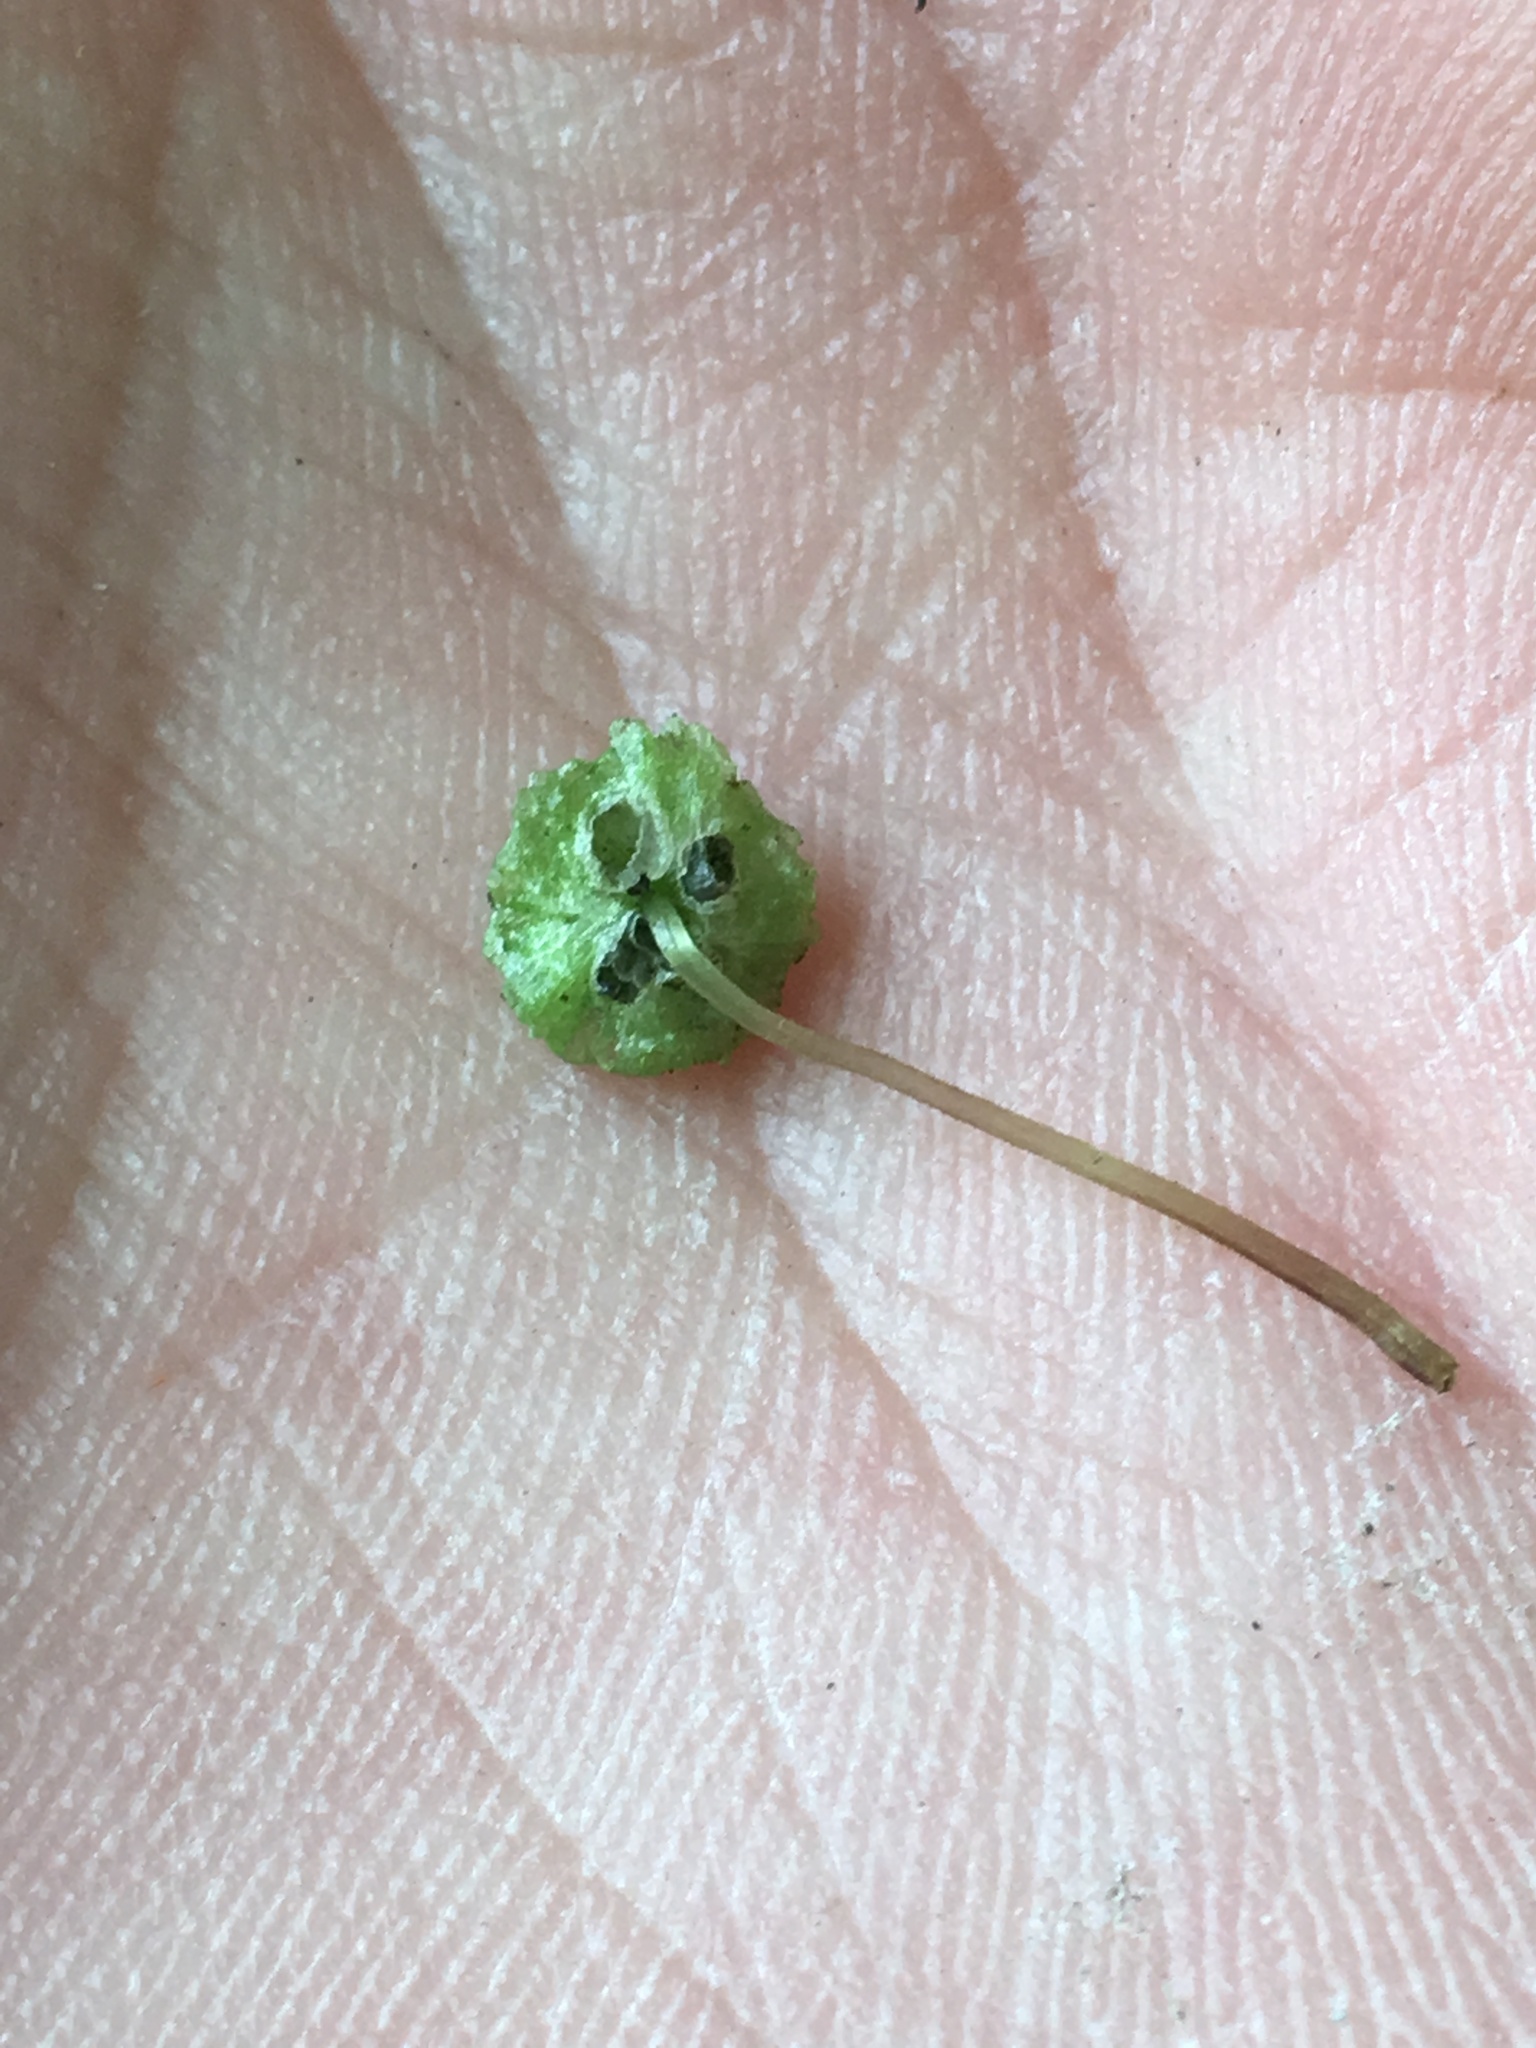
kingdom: Plantae
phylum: Marchantiophyta
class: Marchantiopsida
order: Marchantiales
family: Aytoniaceae
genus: Cryptomitrium
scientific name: Cryptomitrium tenerum
